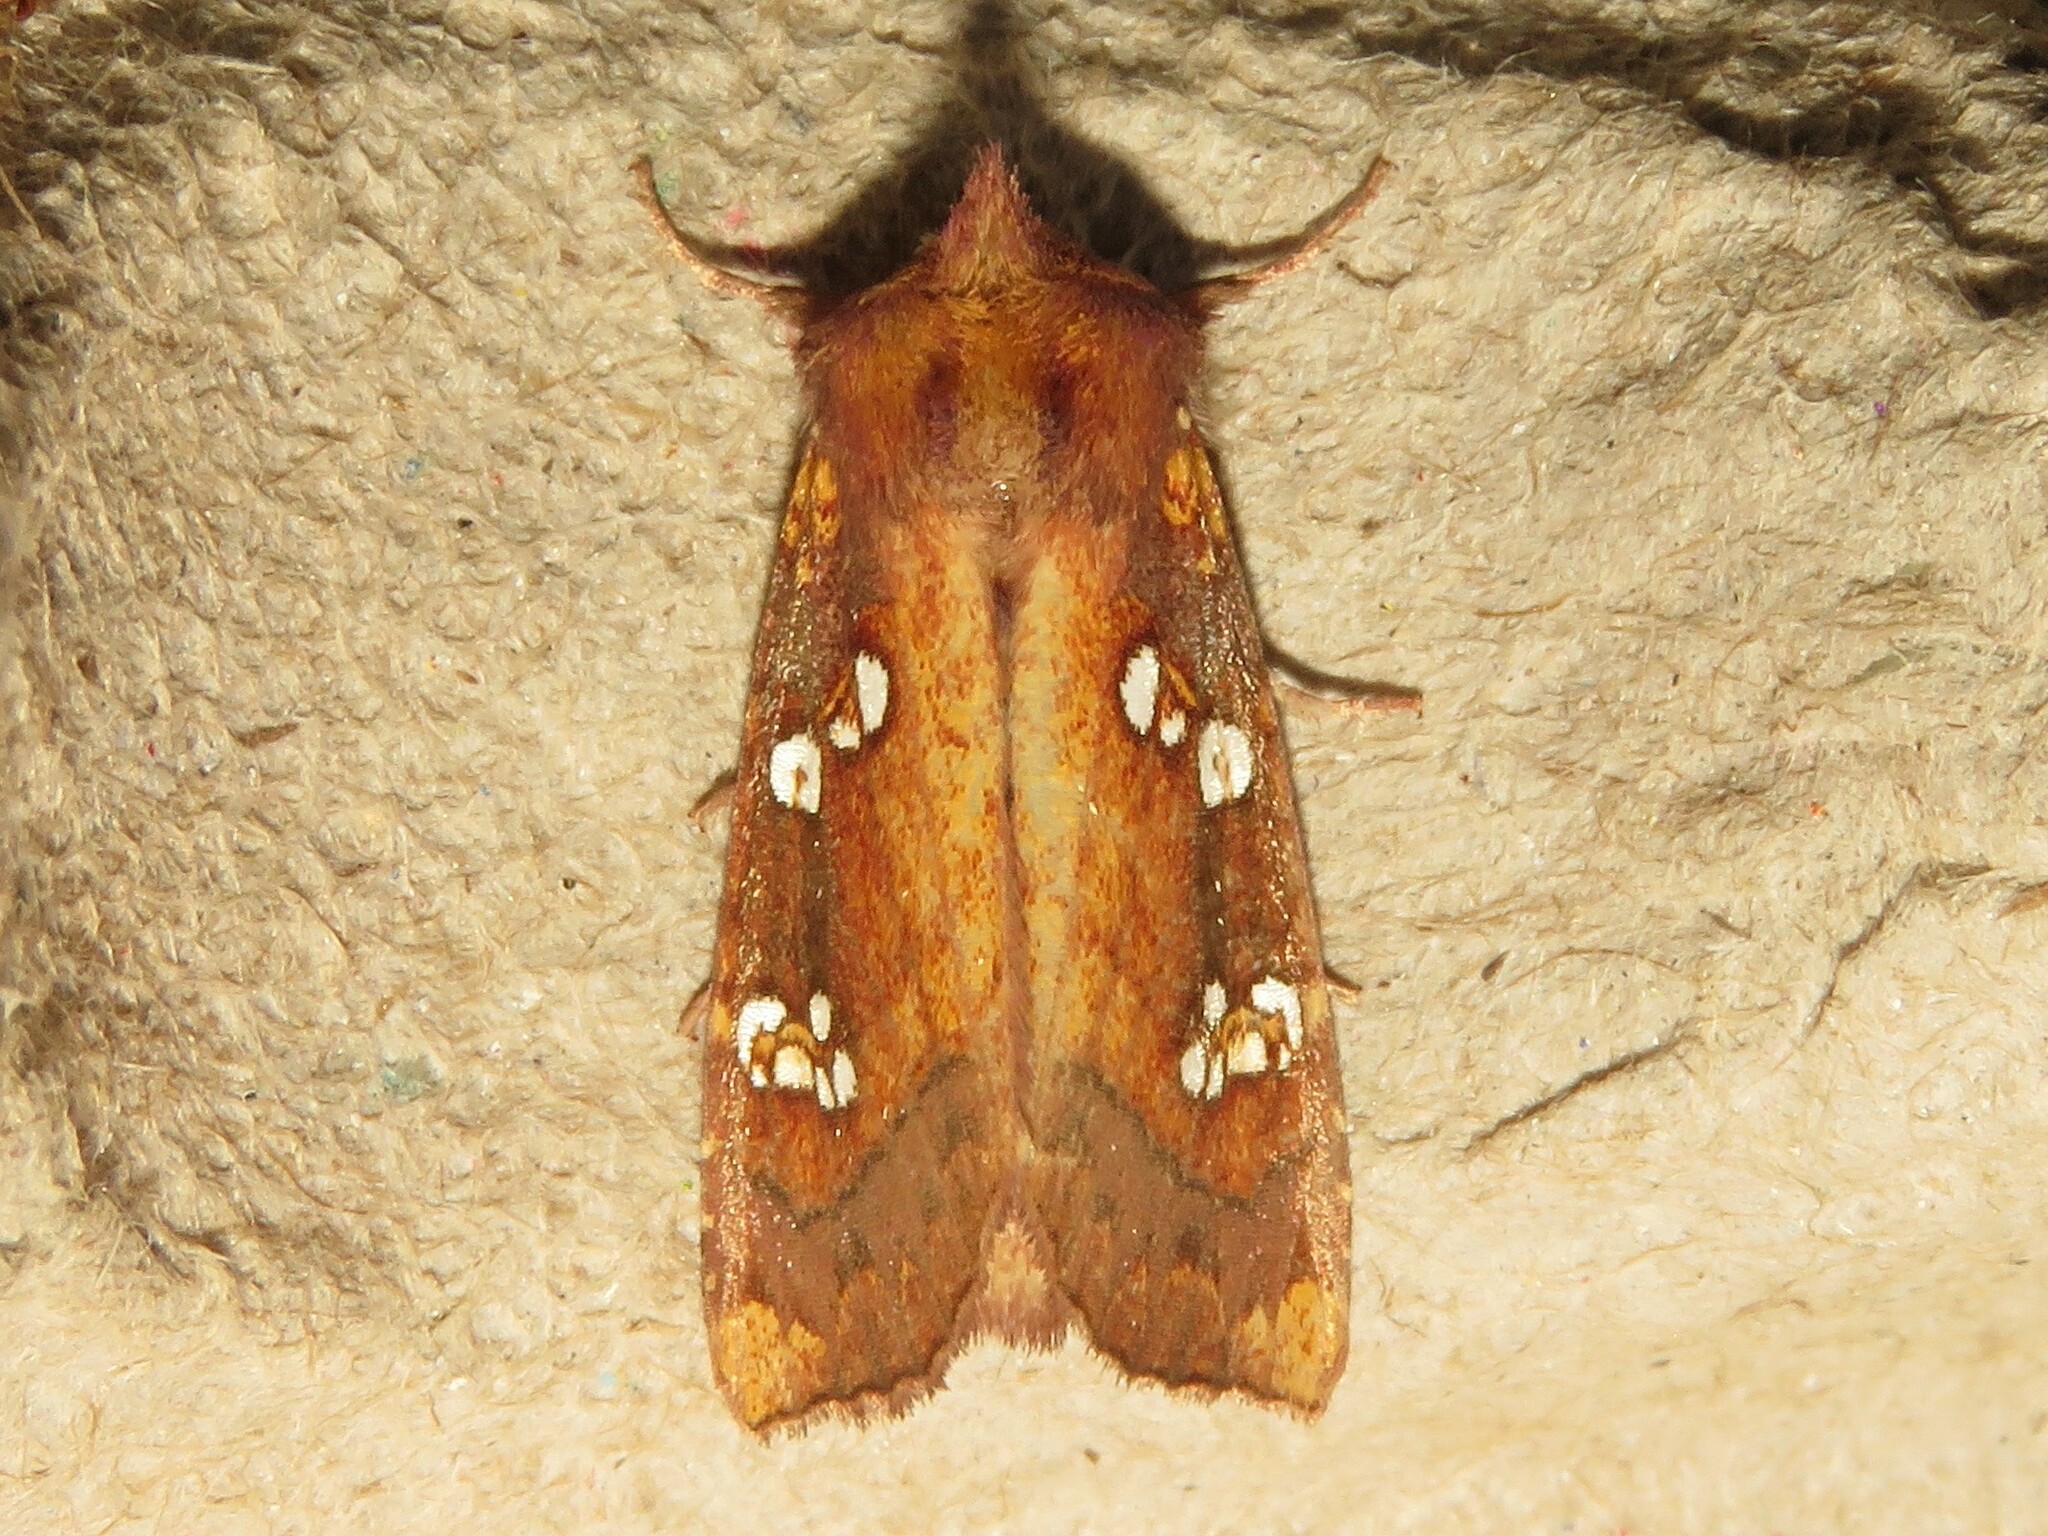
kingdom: Animalia
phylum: Arthropoda
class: Insecta
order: Lepidoptera
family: Noctuidae
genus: Papaipema
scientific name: Papaipema rutila
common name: Mayapple borer moth
